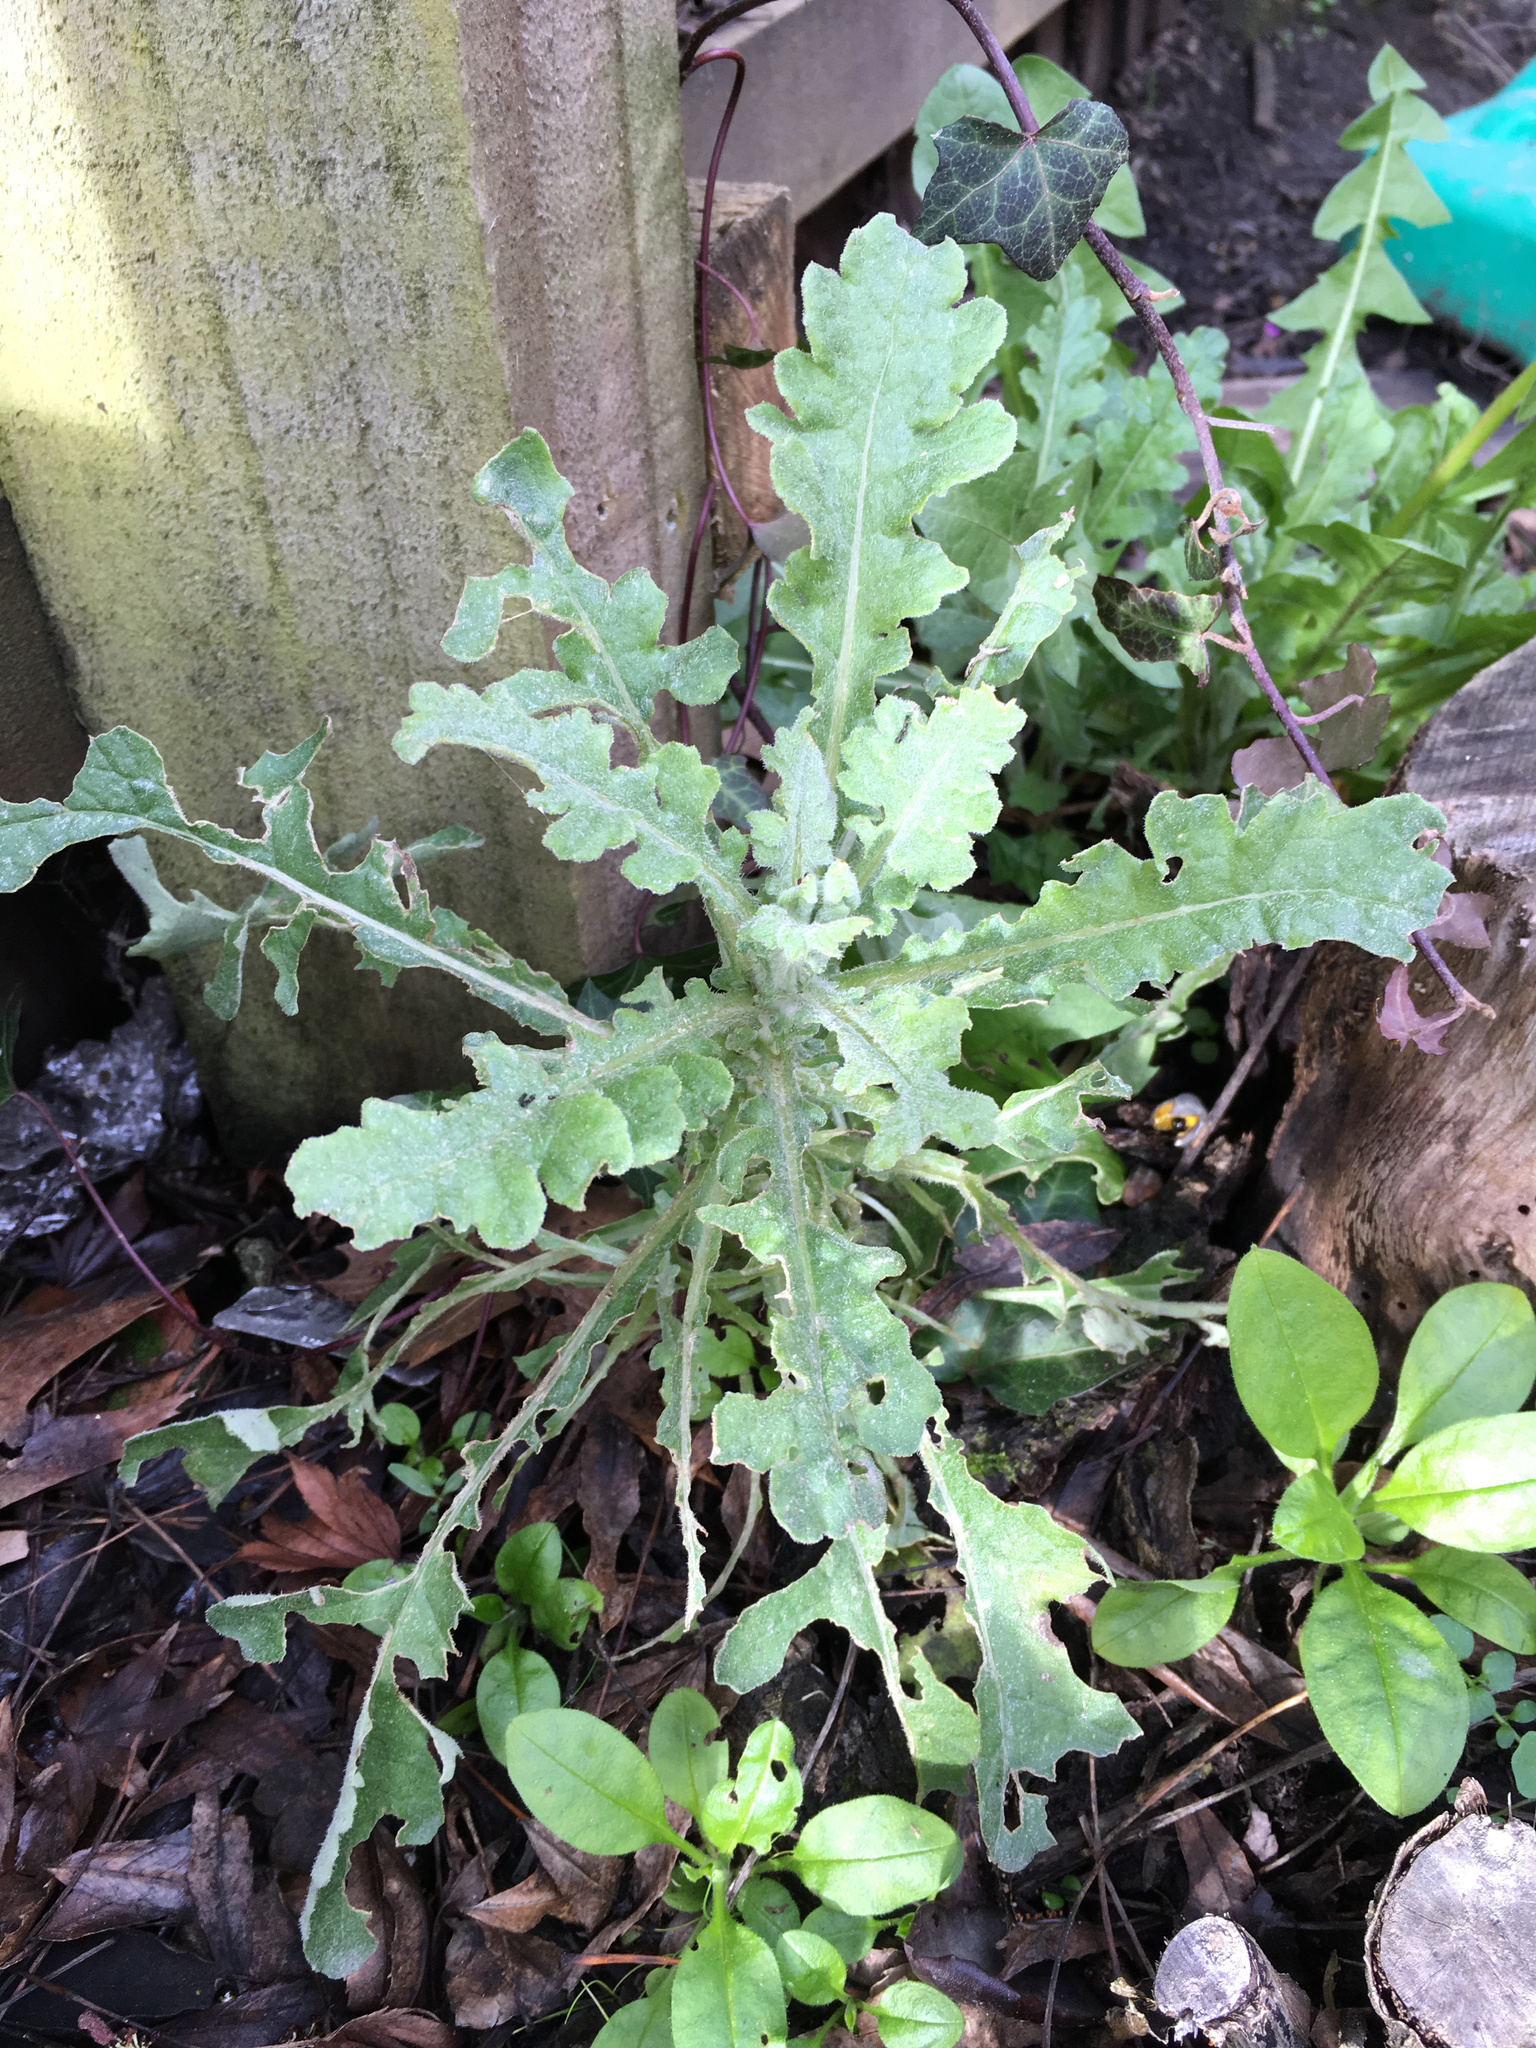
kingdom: Plantae
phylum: Tracheophyta
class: Magnoliopsida
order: Asterales
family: Asteraceae
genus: Senecio
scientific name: Senecio glomeratus
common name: Cutleaf burnweed
